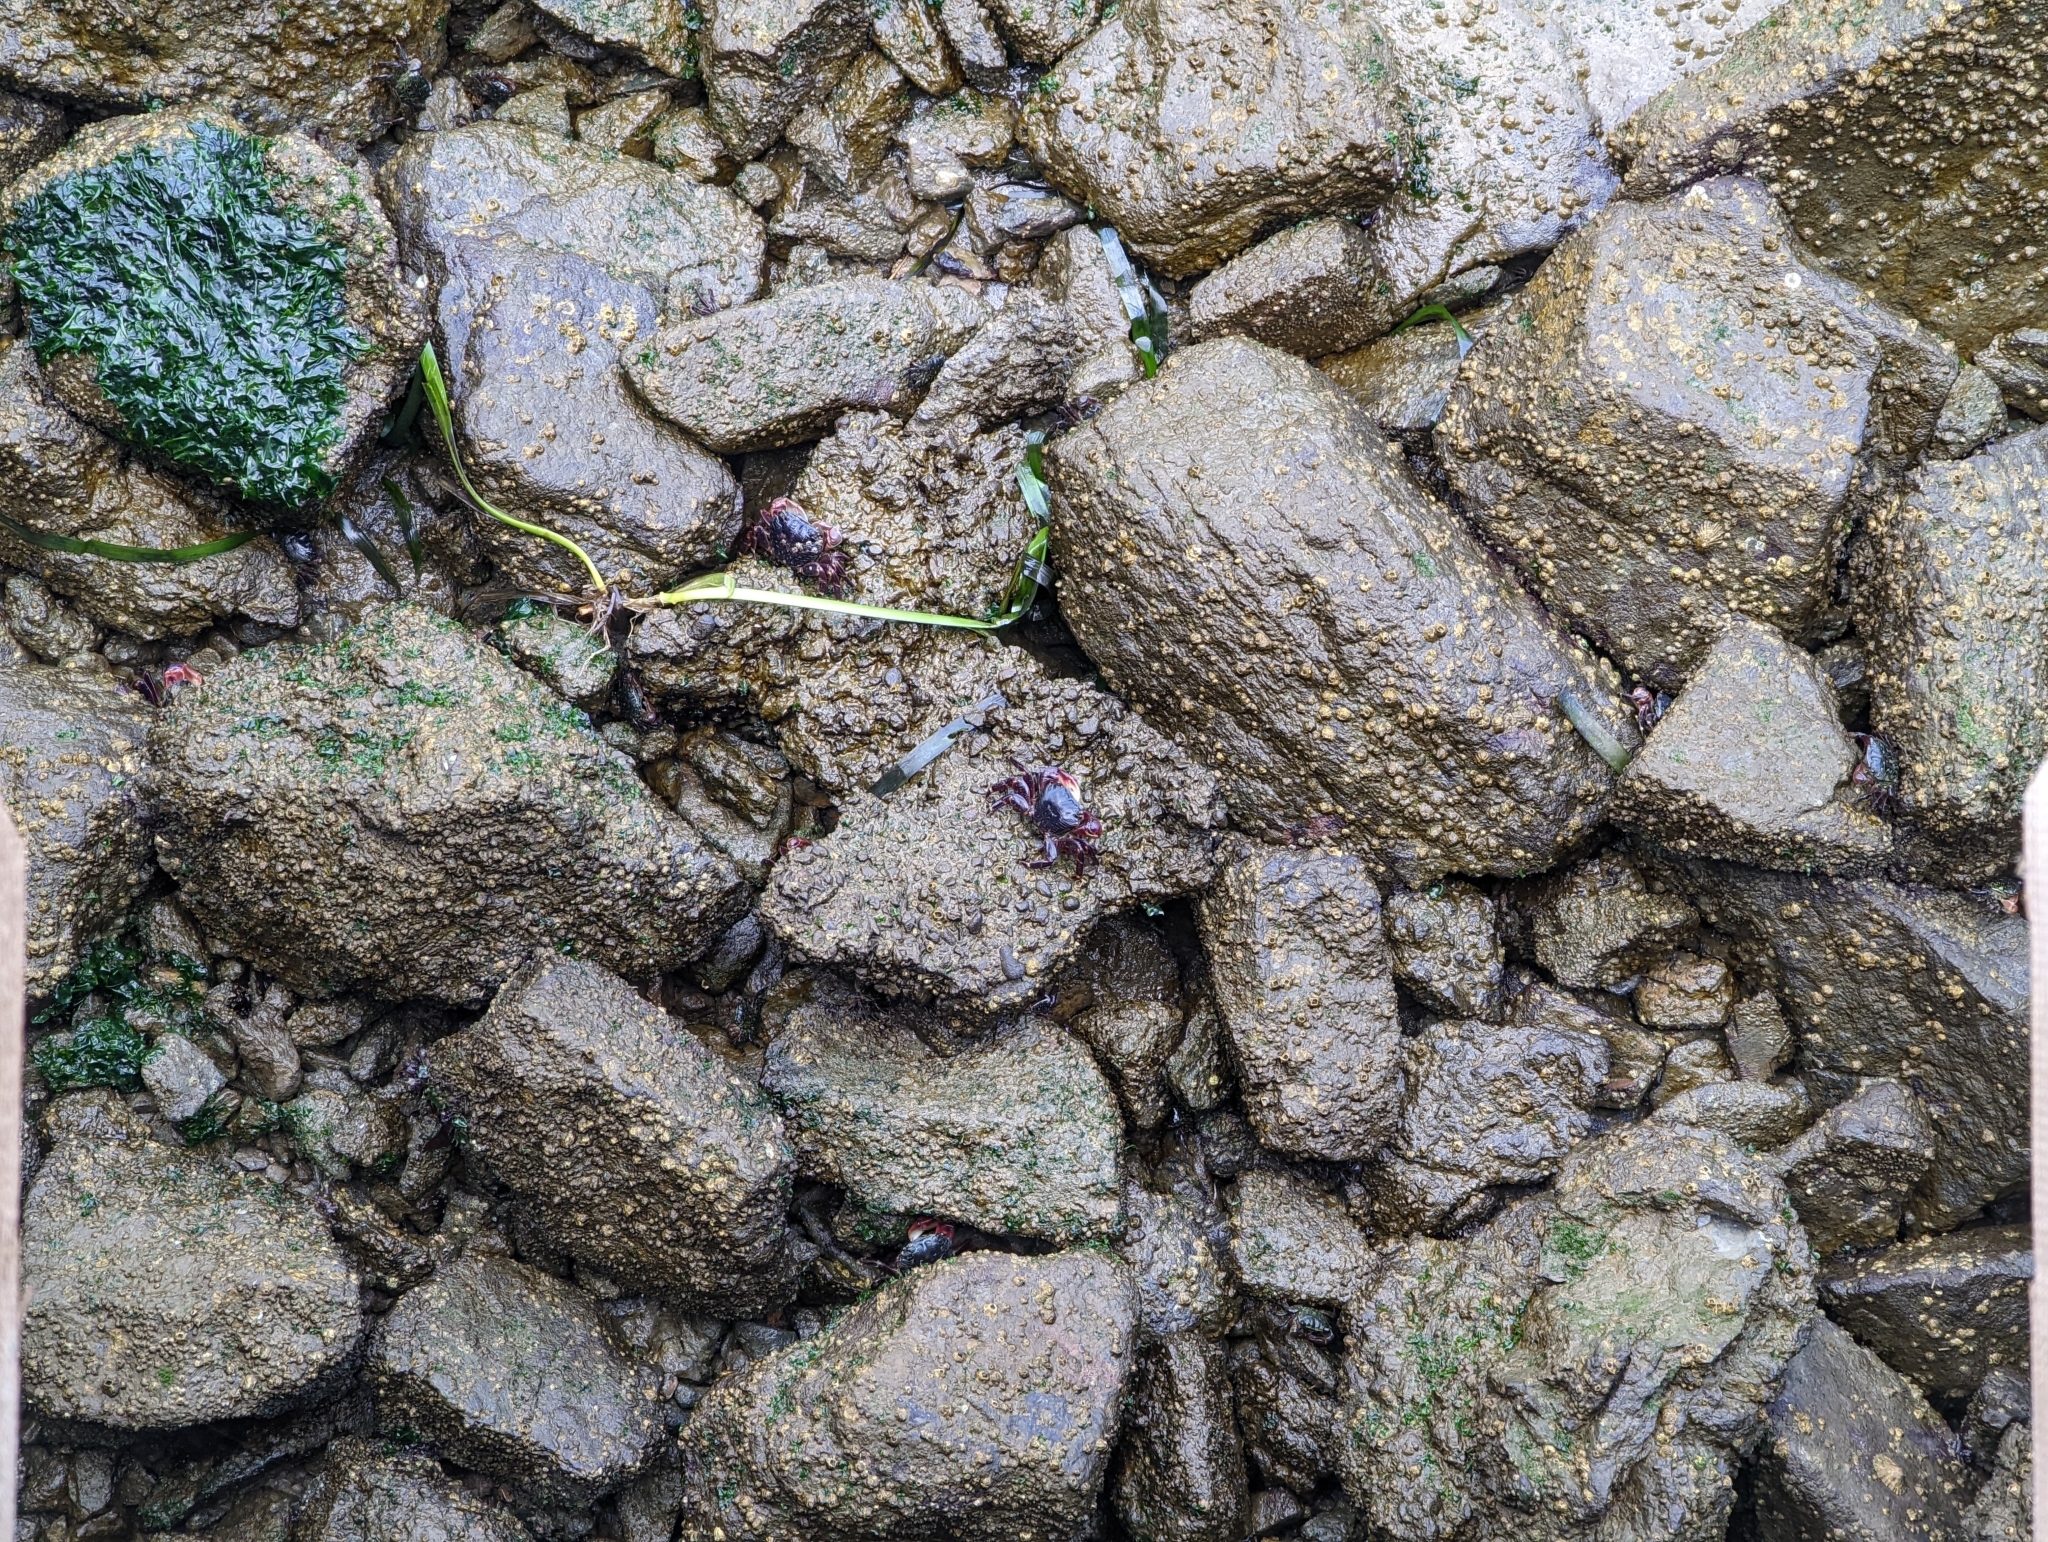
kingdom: Animalia
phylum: Arthropoda
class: Malacostraca
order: Decapoda
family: Grapsidae
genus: Pachygrapsus
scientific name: Pachygrapsus crassipes
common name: Striped shore crab
